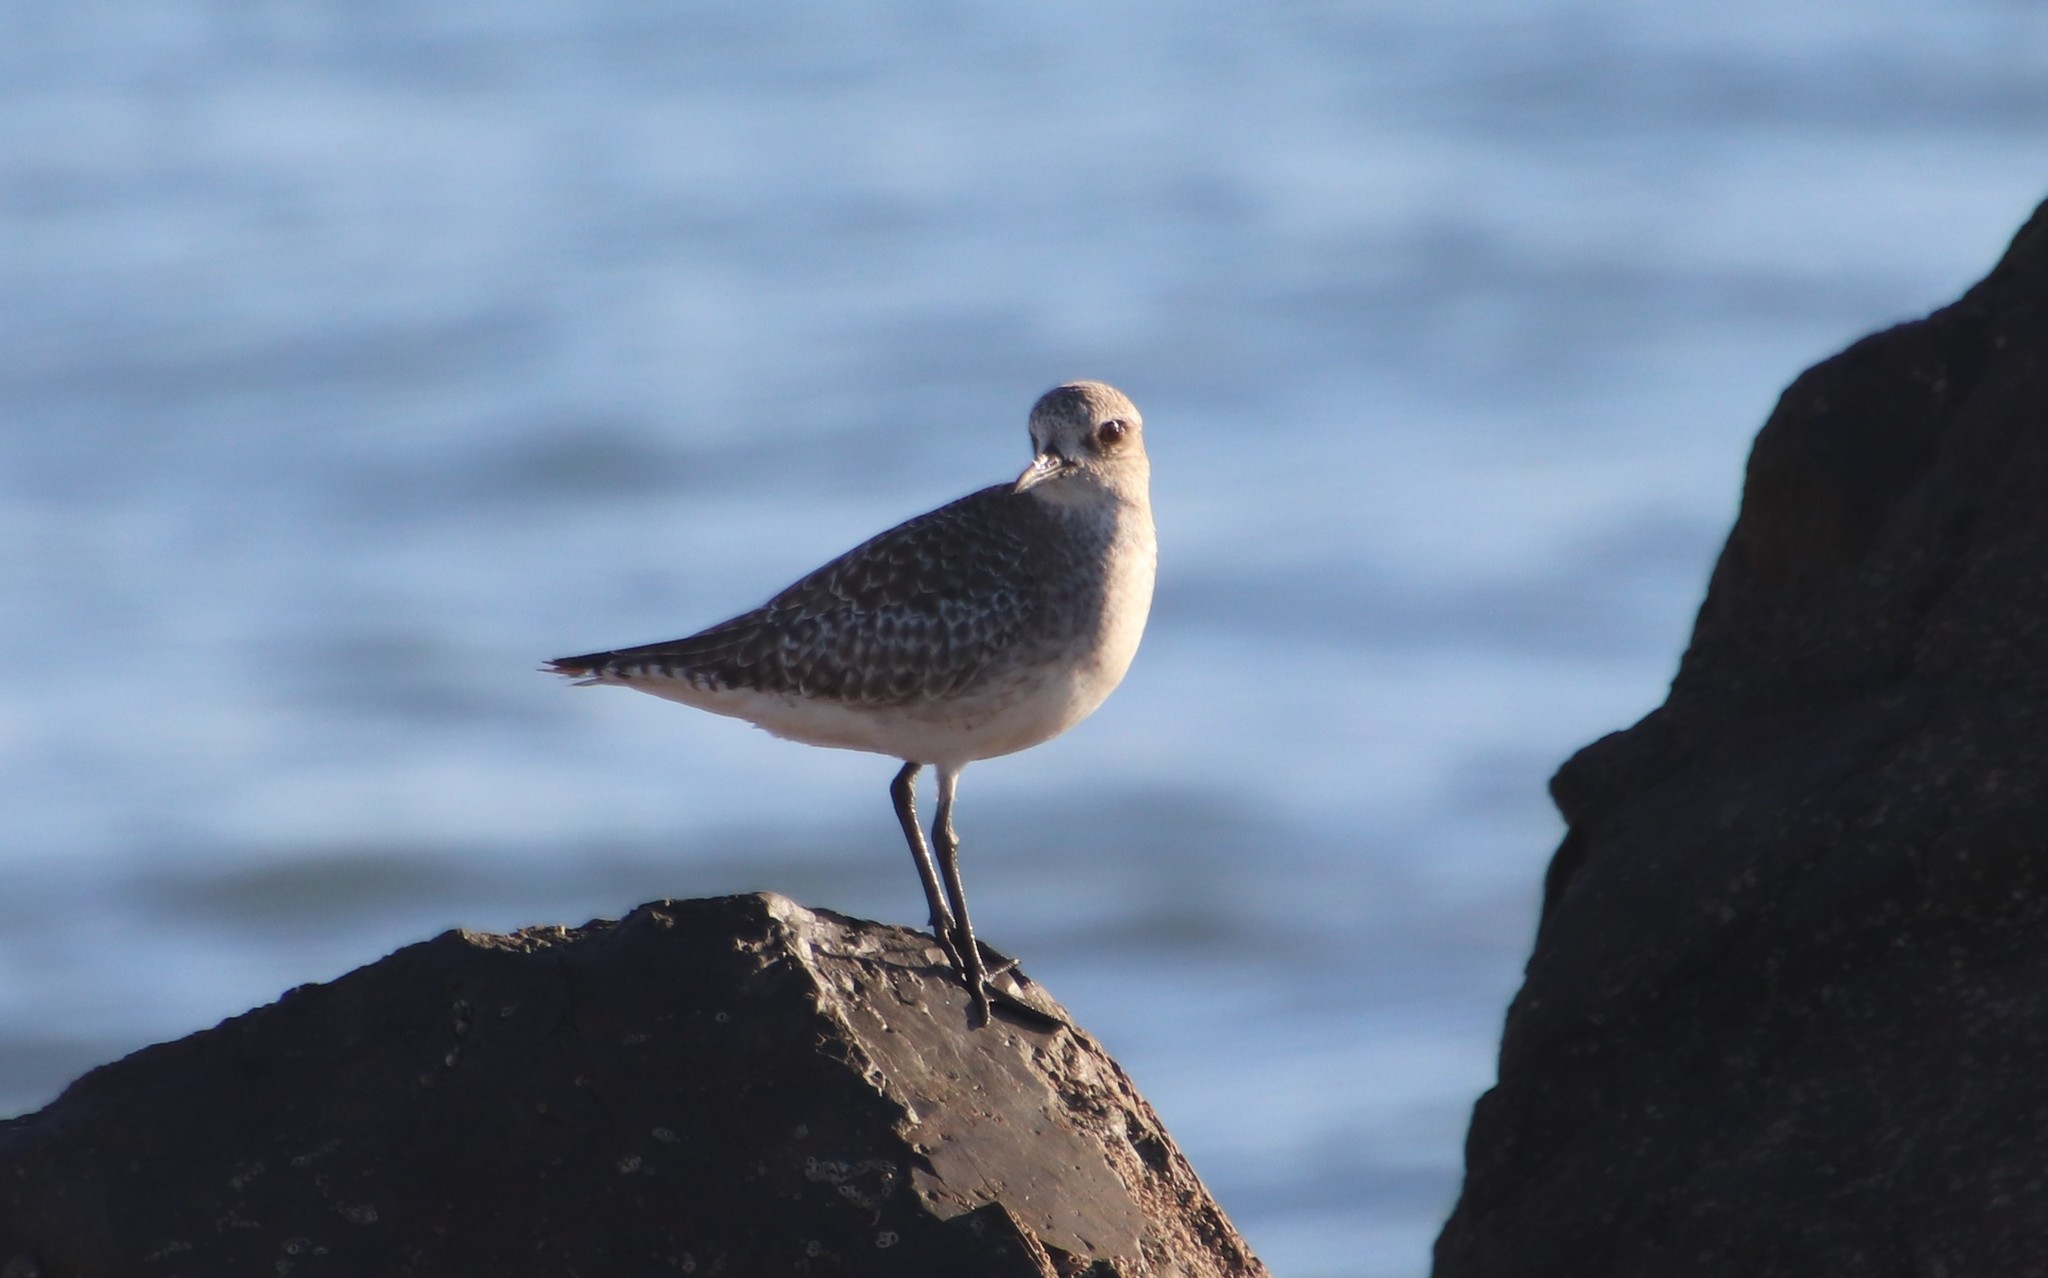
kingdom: Animalia
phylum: Chordata
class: Aves
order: Charadriiformes
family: Charadriidae
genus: Pluvialis
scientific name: Pluvialis squatarola
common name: Grey plover
